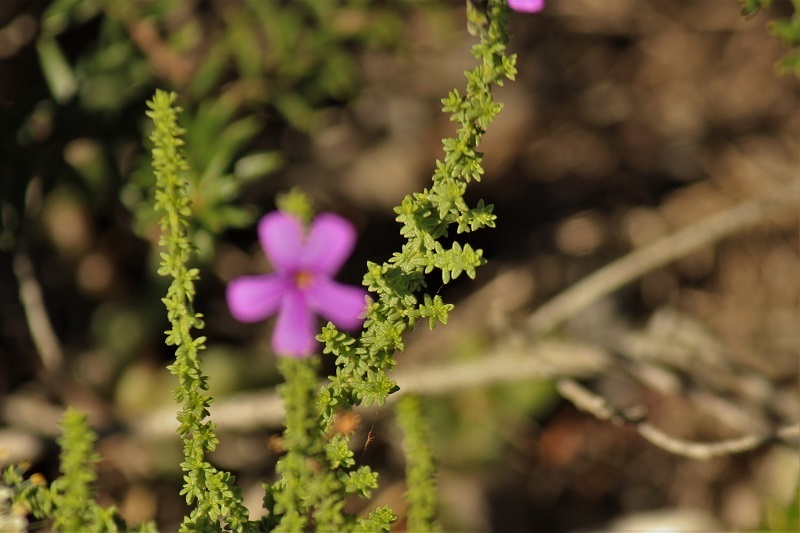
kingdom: Plantae
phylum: Tracheophyta
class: Magnoliopsida
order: Lamiales
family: Scrophulariaceae
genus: Jamesbrittenia
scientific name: Jamesbrittenia microphylla
